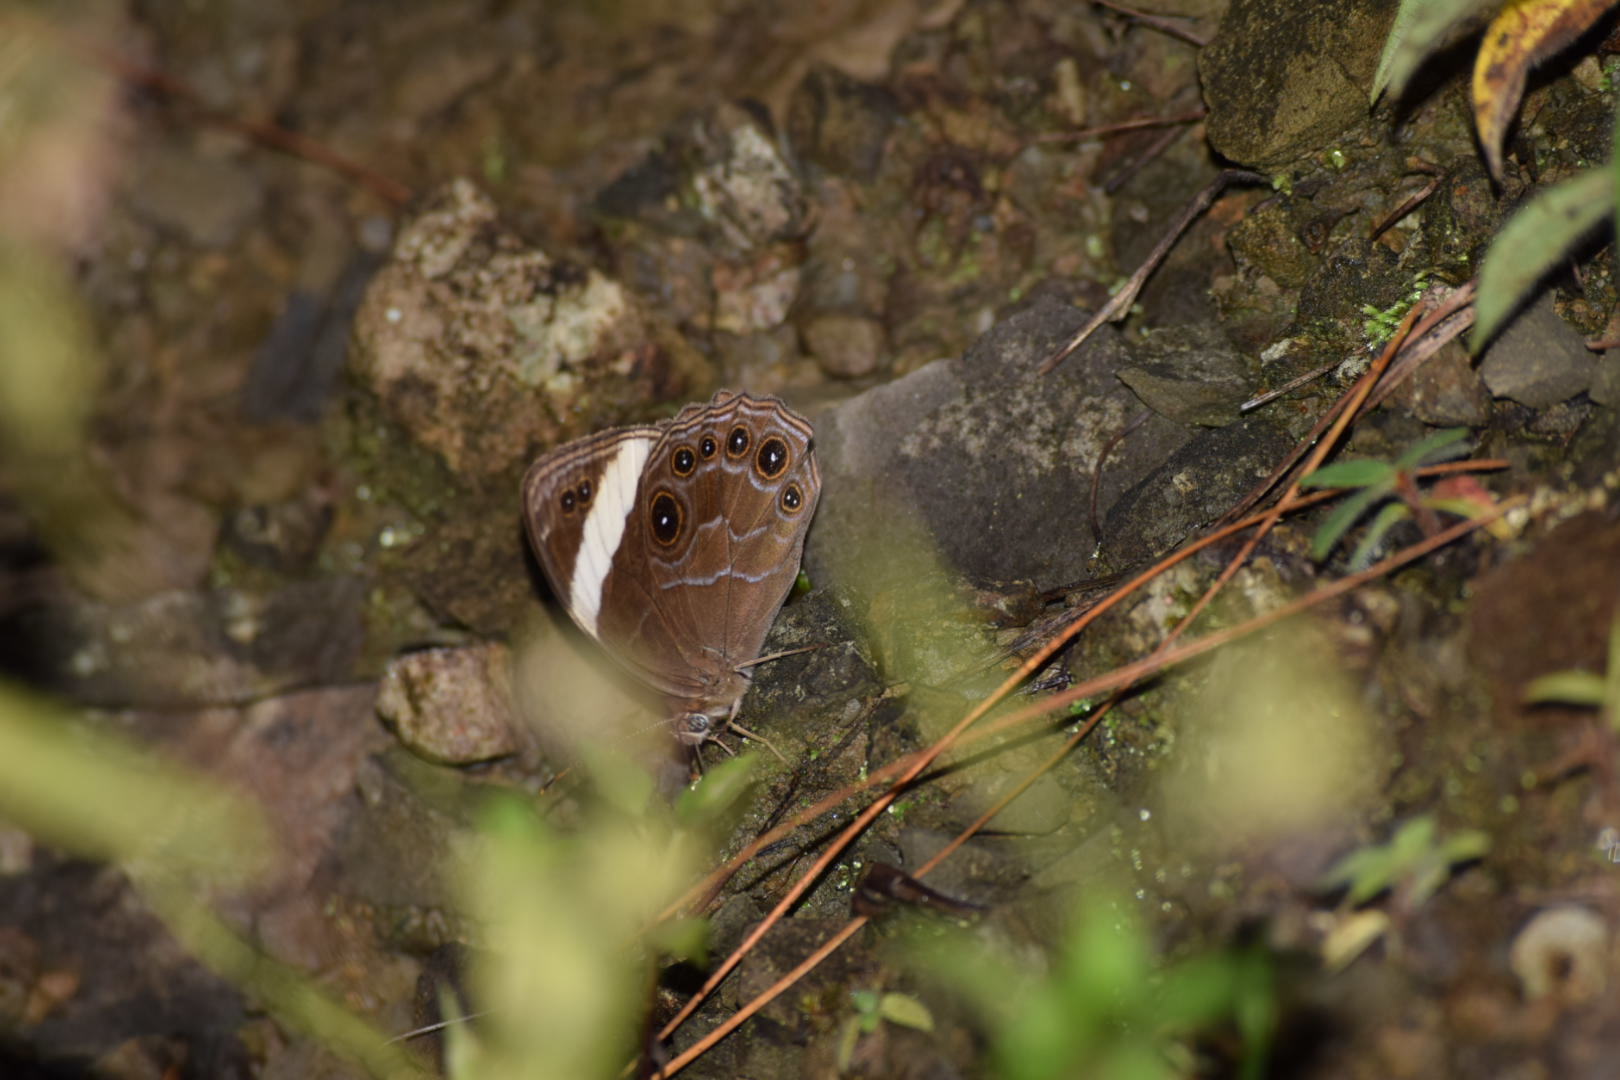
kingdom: Animalia
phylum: Arthropoda
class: Insecta
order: Lepidoptera
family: Nymphalidae
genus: Lethe
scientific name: Lethe verma
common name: Straight-banded treebrown
